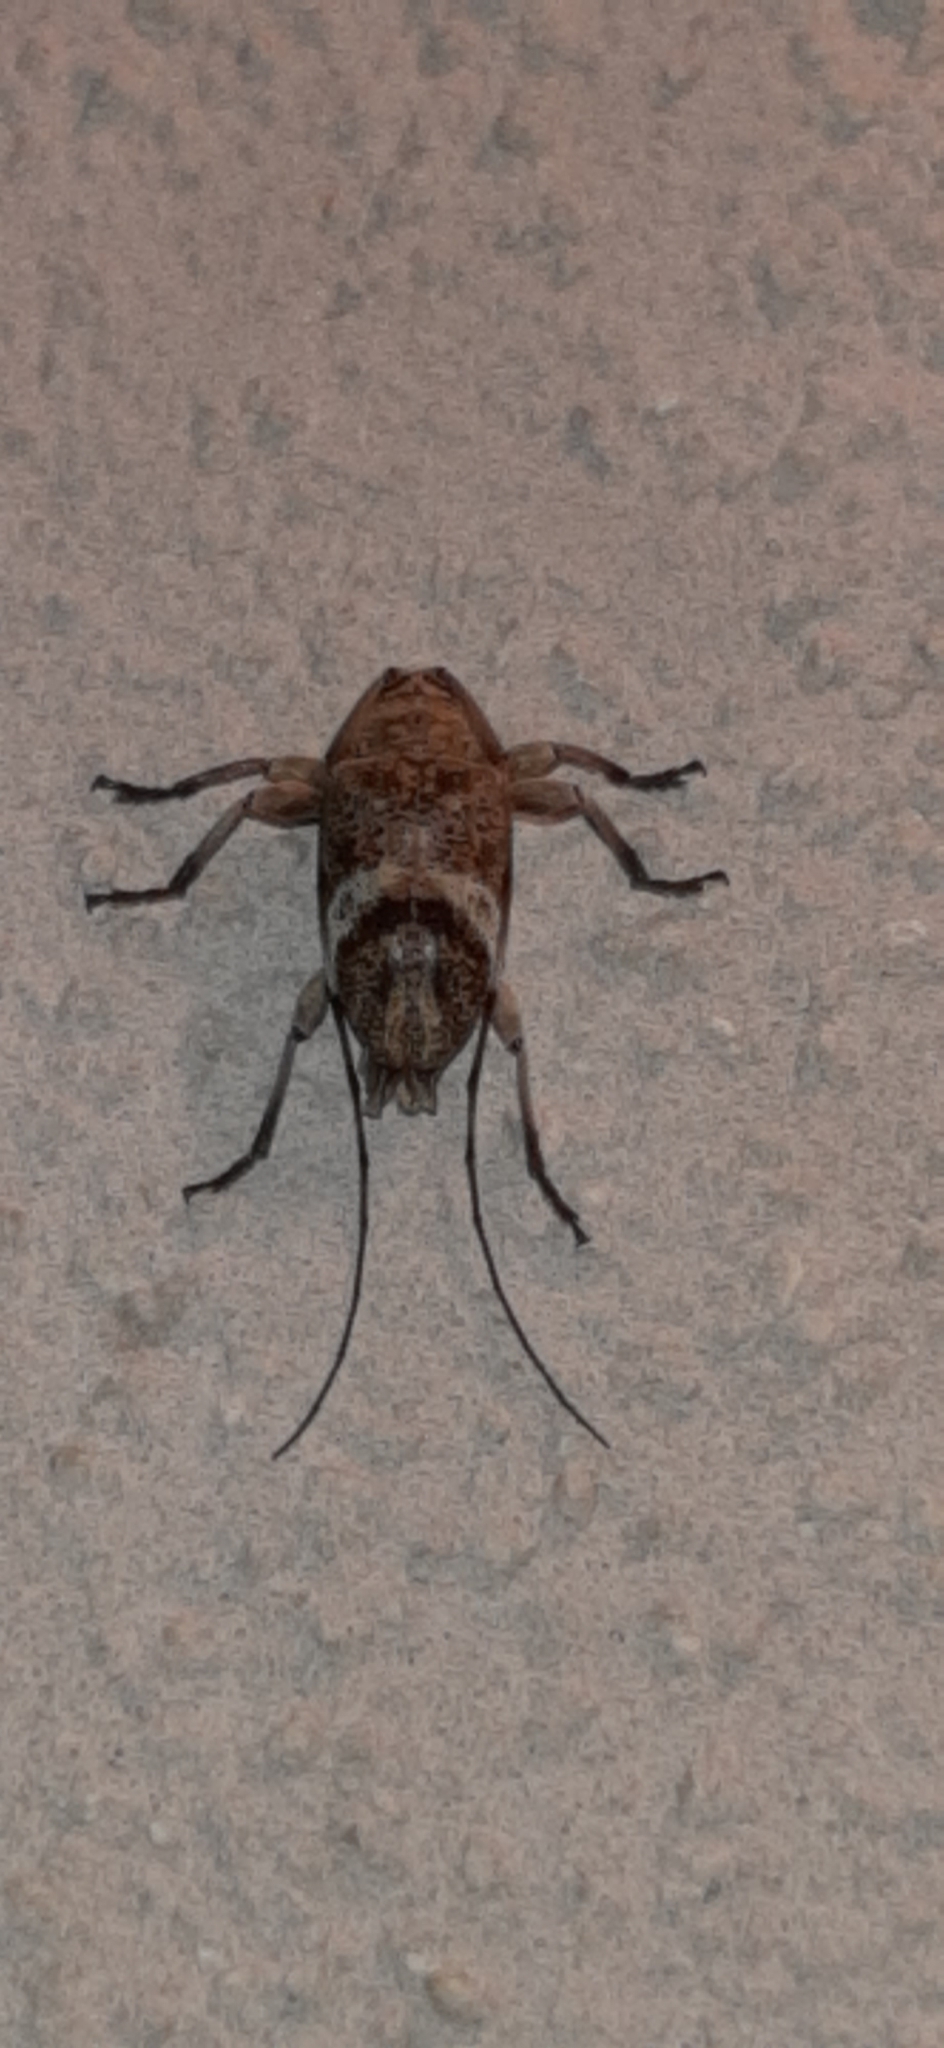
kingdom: Animalia
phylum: Arthropoda
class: Insecta
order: Coleoptera
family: Cerambycidae
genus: Atrypanius
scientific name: Atrypanius implexus
